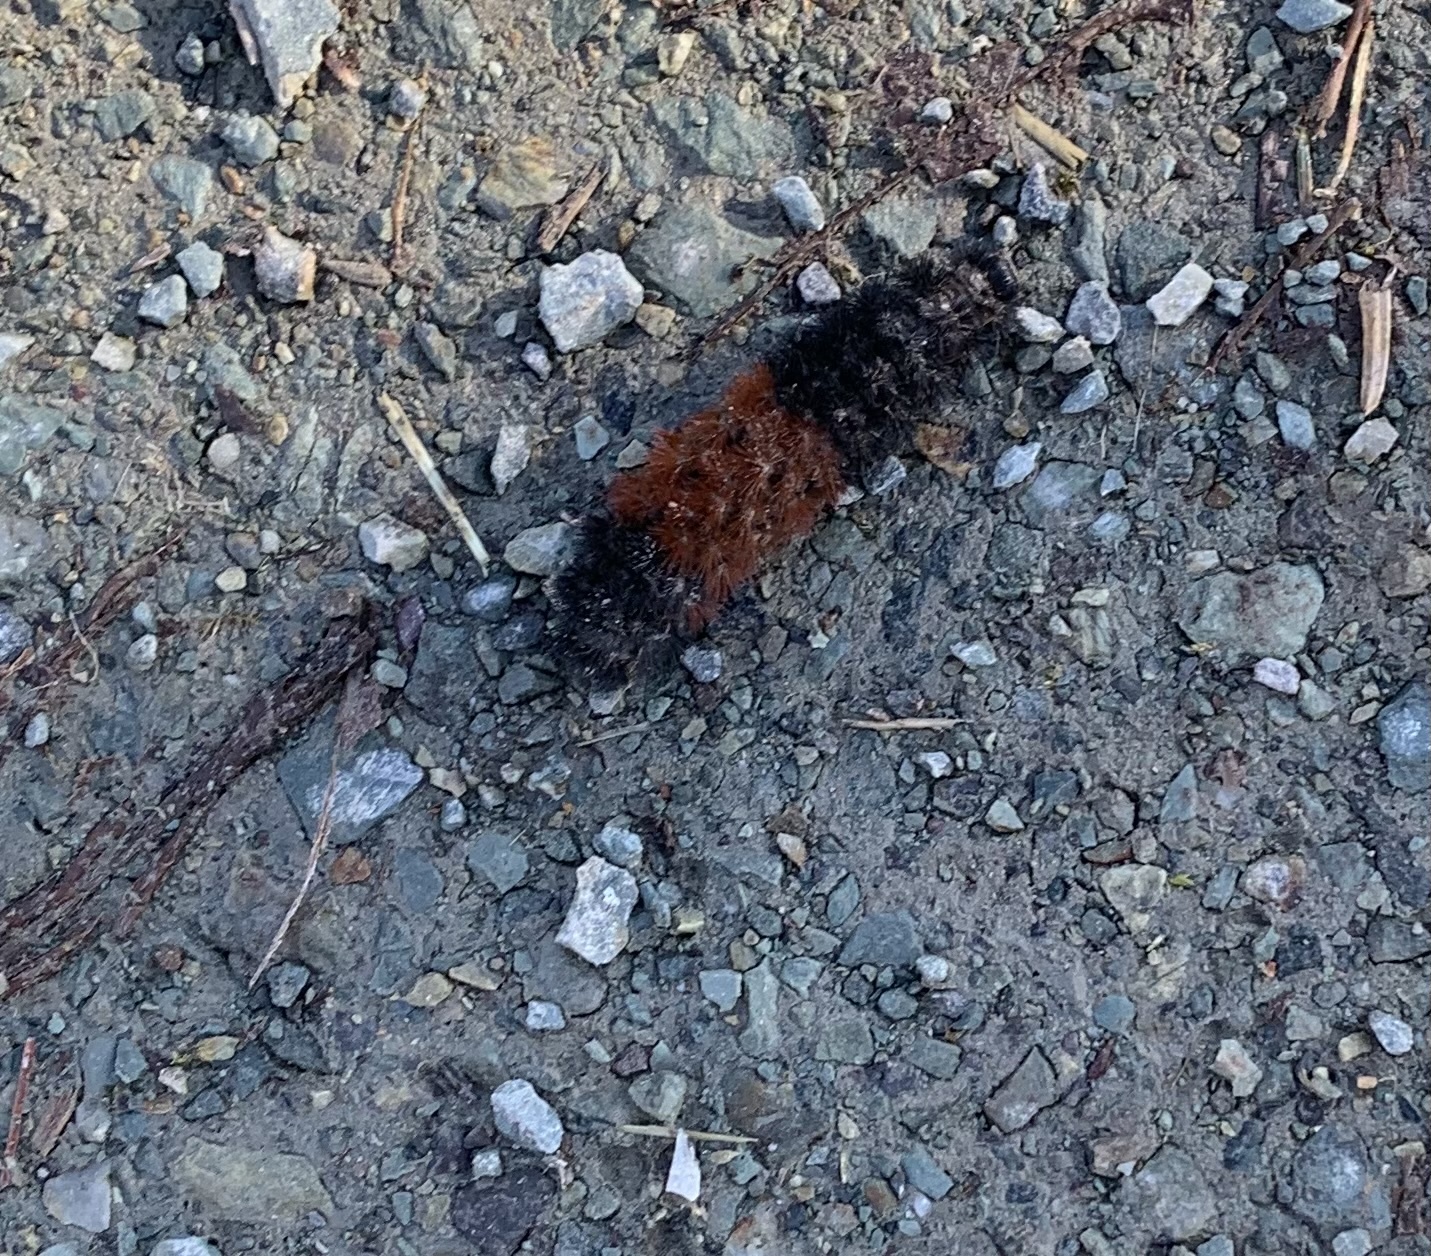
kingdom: Animalia
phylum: Arthropoda
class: Insecta
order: Lepidoptera
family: Erebidae
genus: Pyrrharctia
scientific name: Pyrrharctia isabella
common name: Isabella tiger moth
